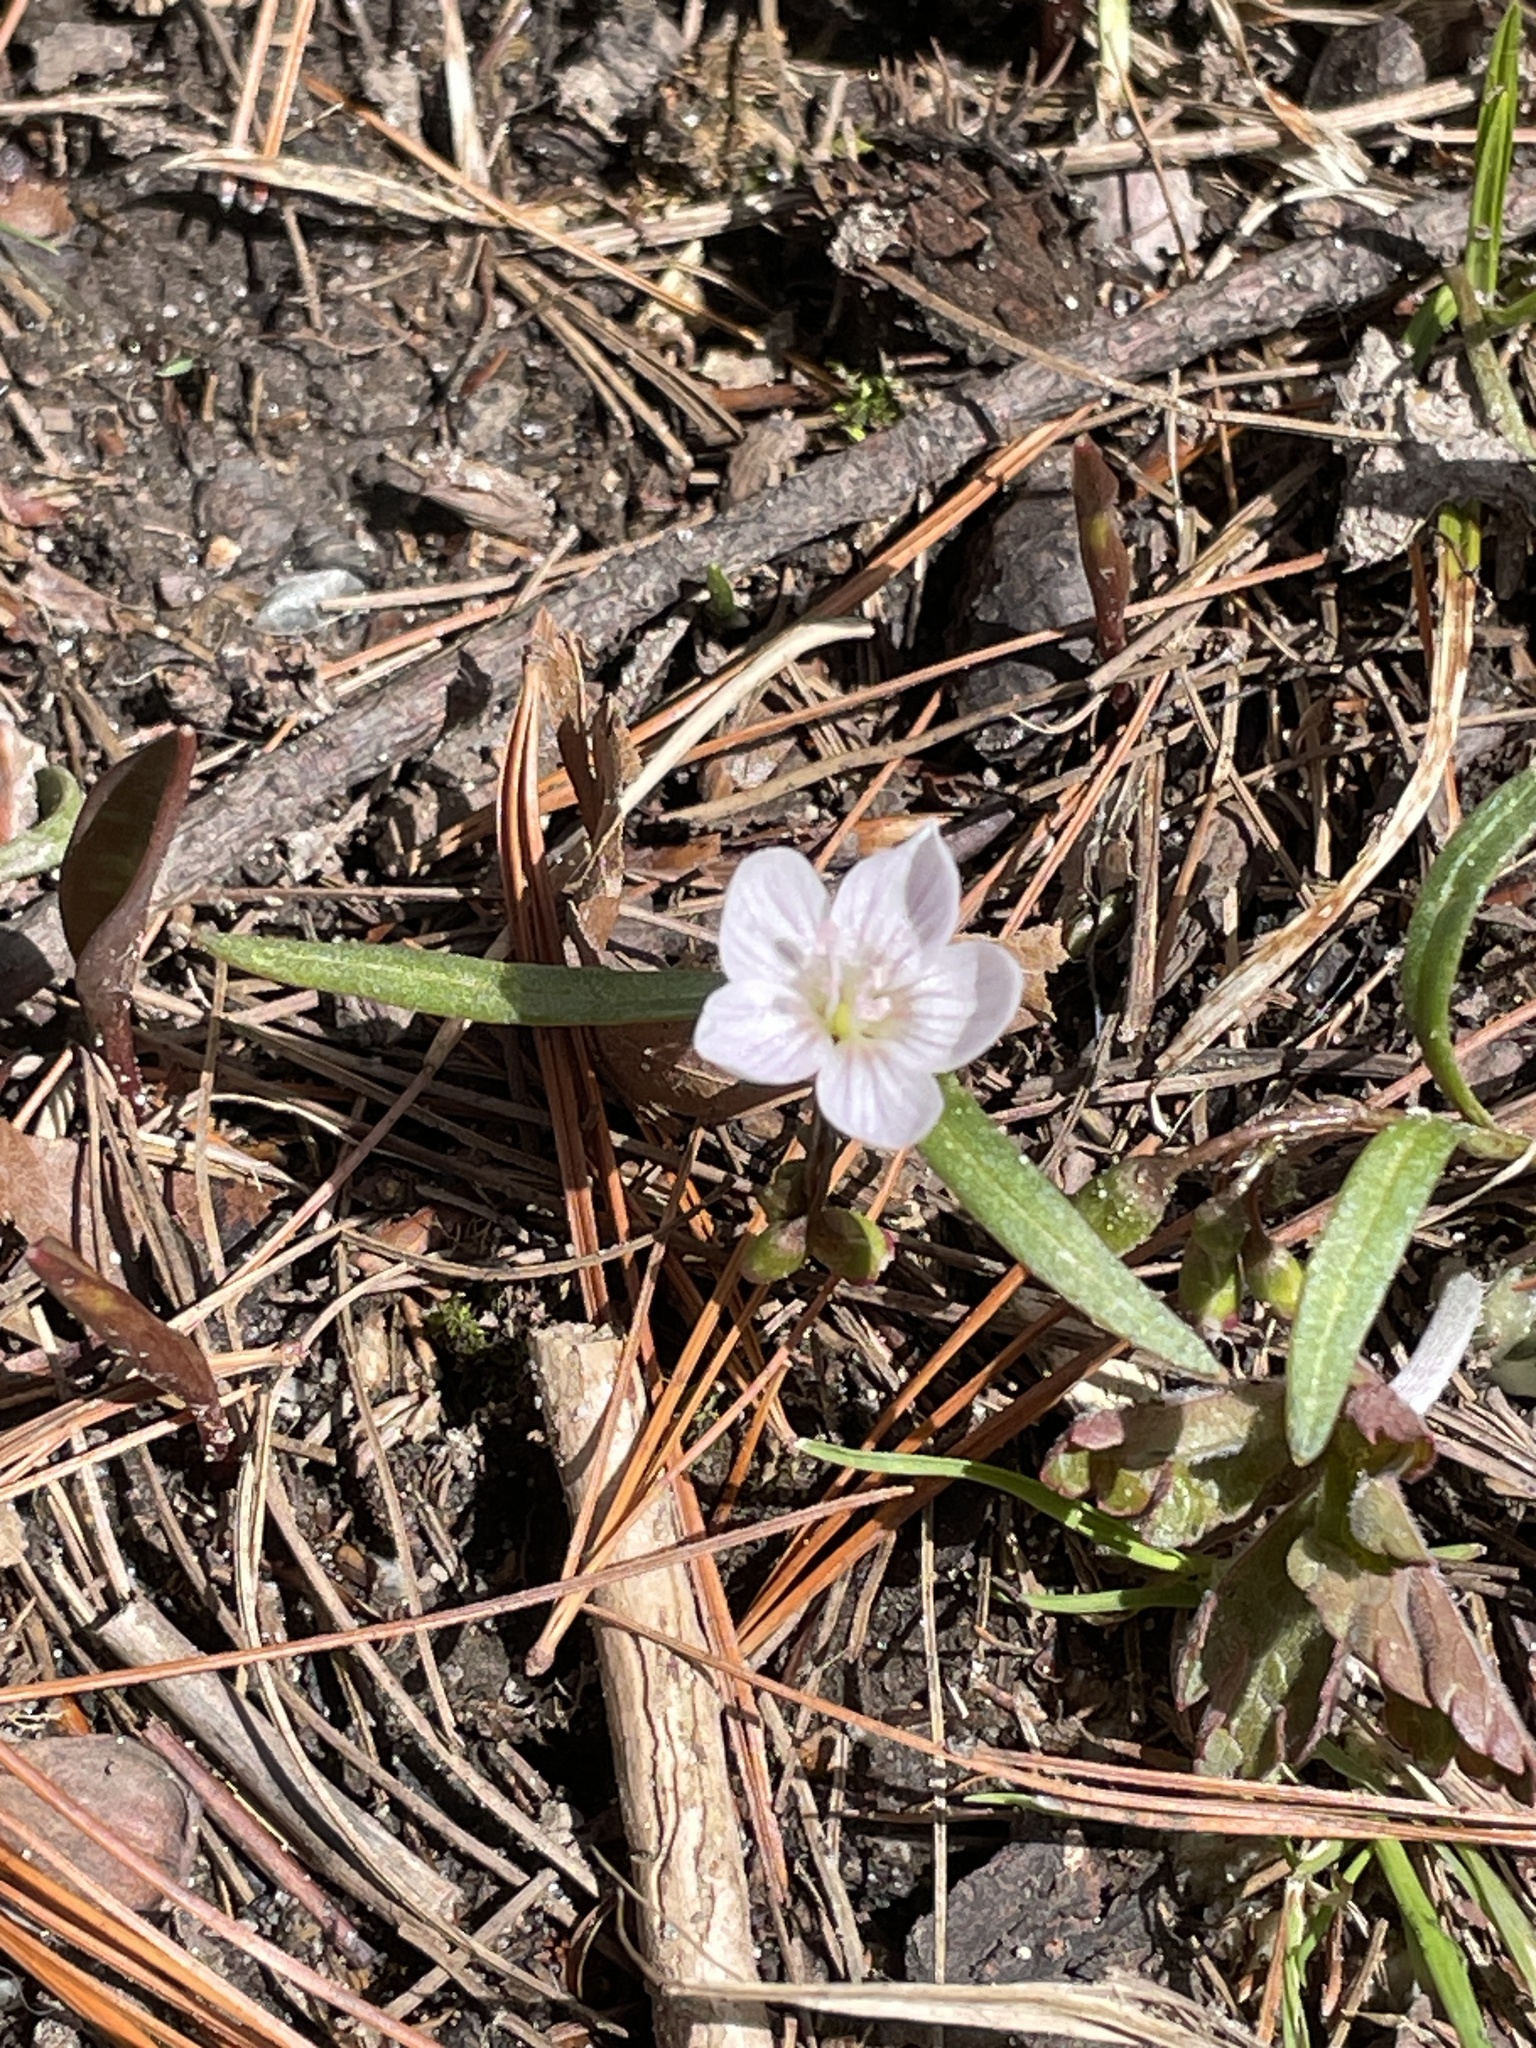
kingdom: Plantae
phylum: Tracheophyta
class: Magnoliopsida
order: Caryophyllales
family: Montiaceae
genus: Claytonia
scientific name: Claytonia virginica
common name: Virginia springbeauty
